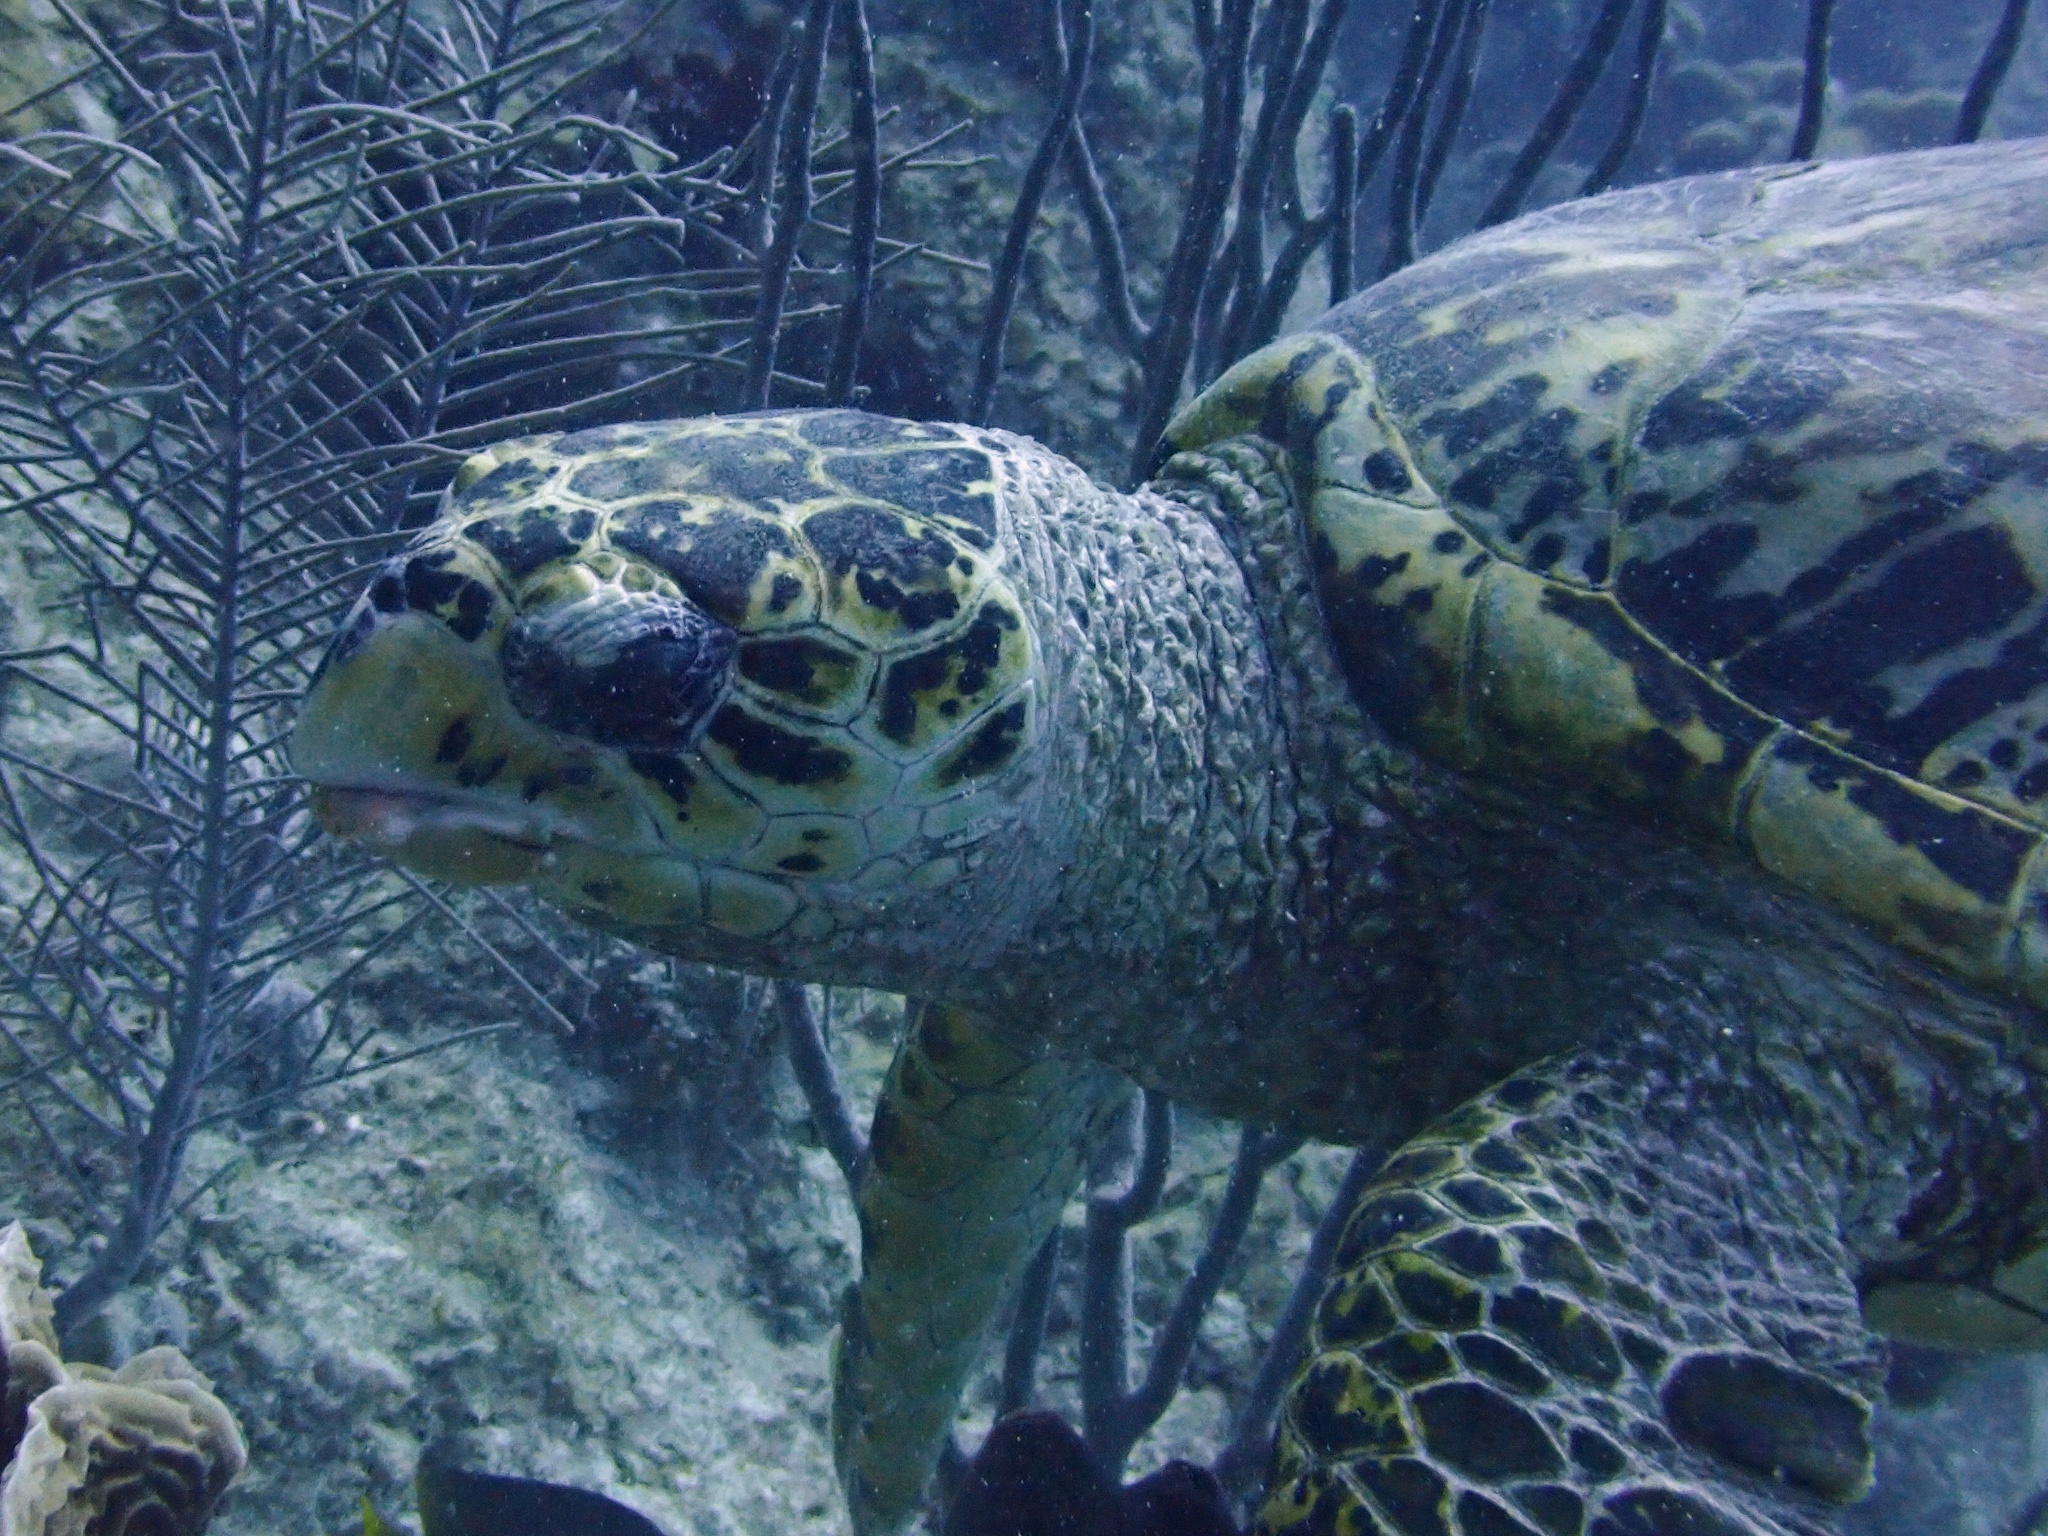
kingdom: Animalia
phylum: Chordata
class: Testudines
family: Cheloniidae
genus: Eretmochelys
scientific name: Eretmochelys imbricata
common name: Hawksbill turtle
